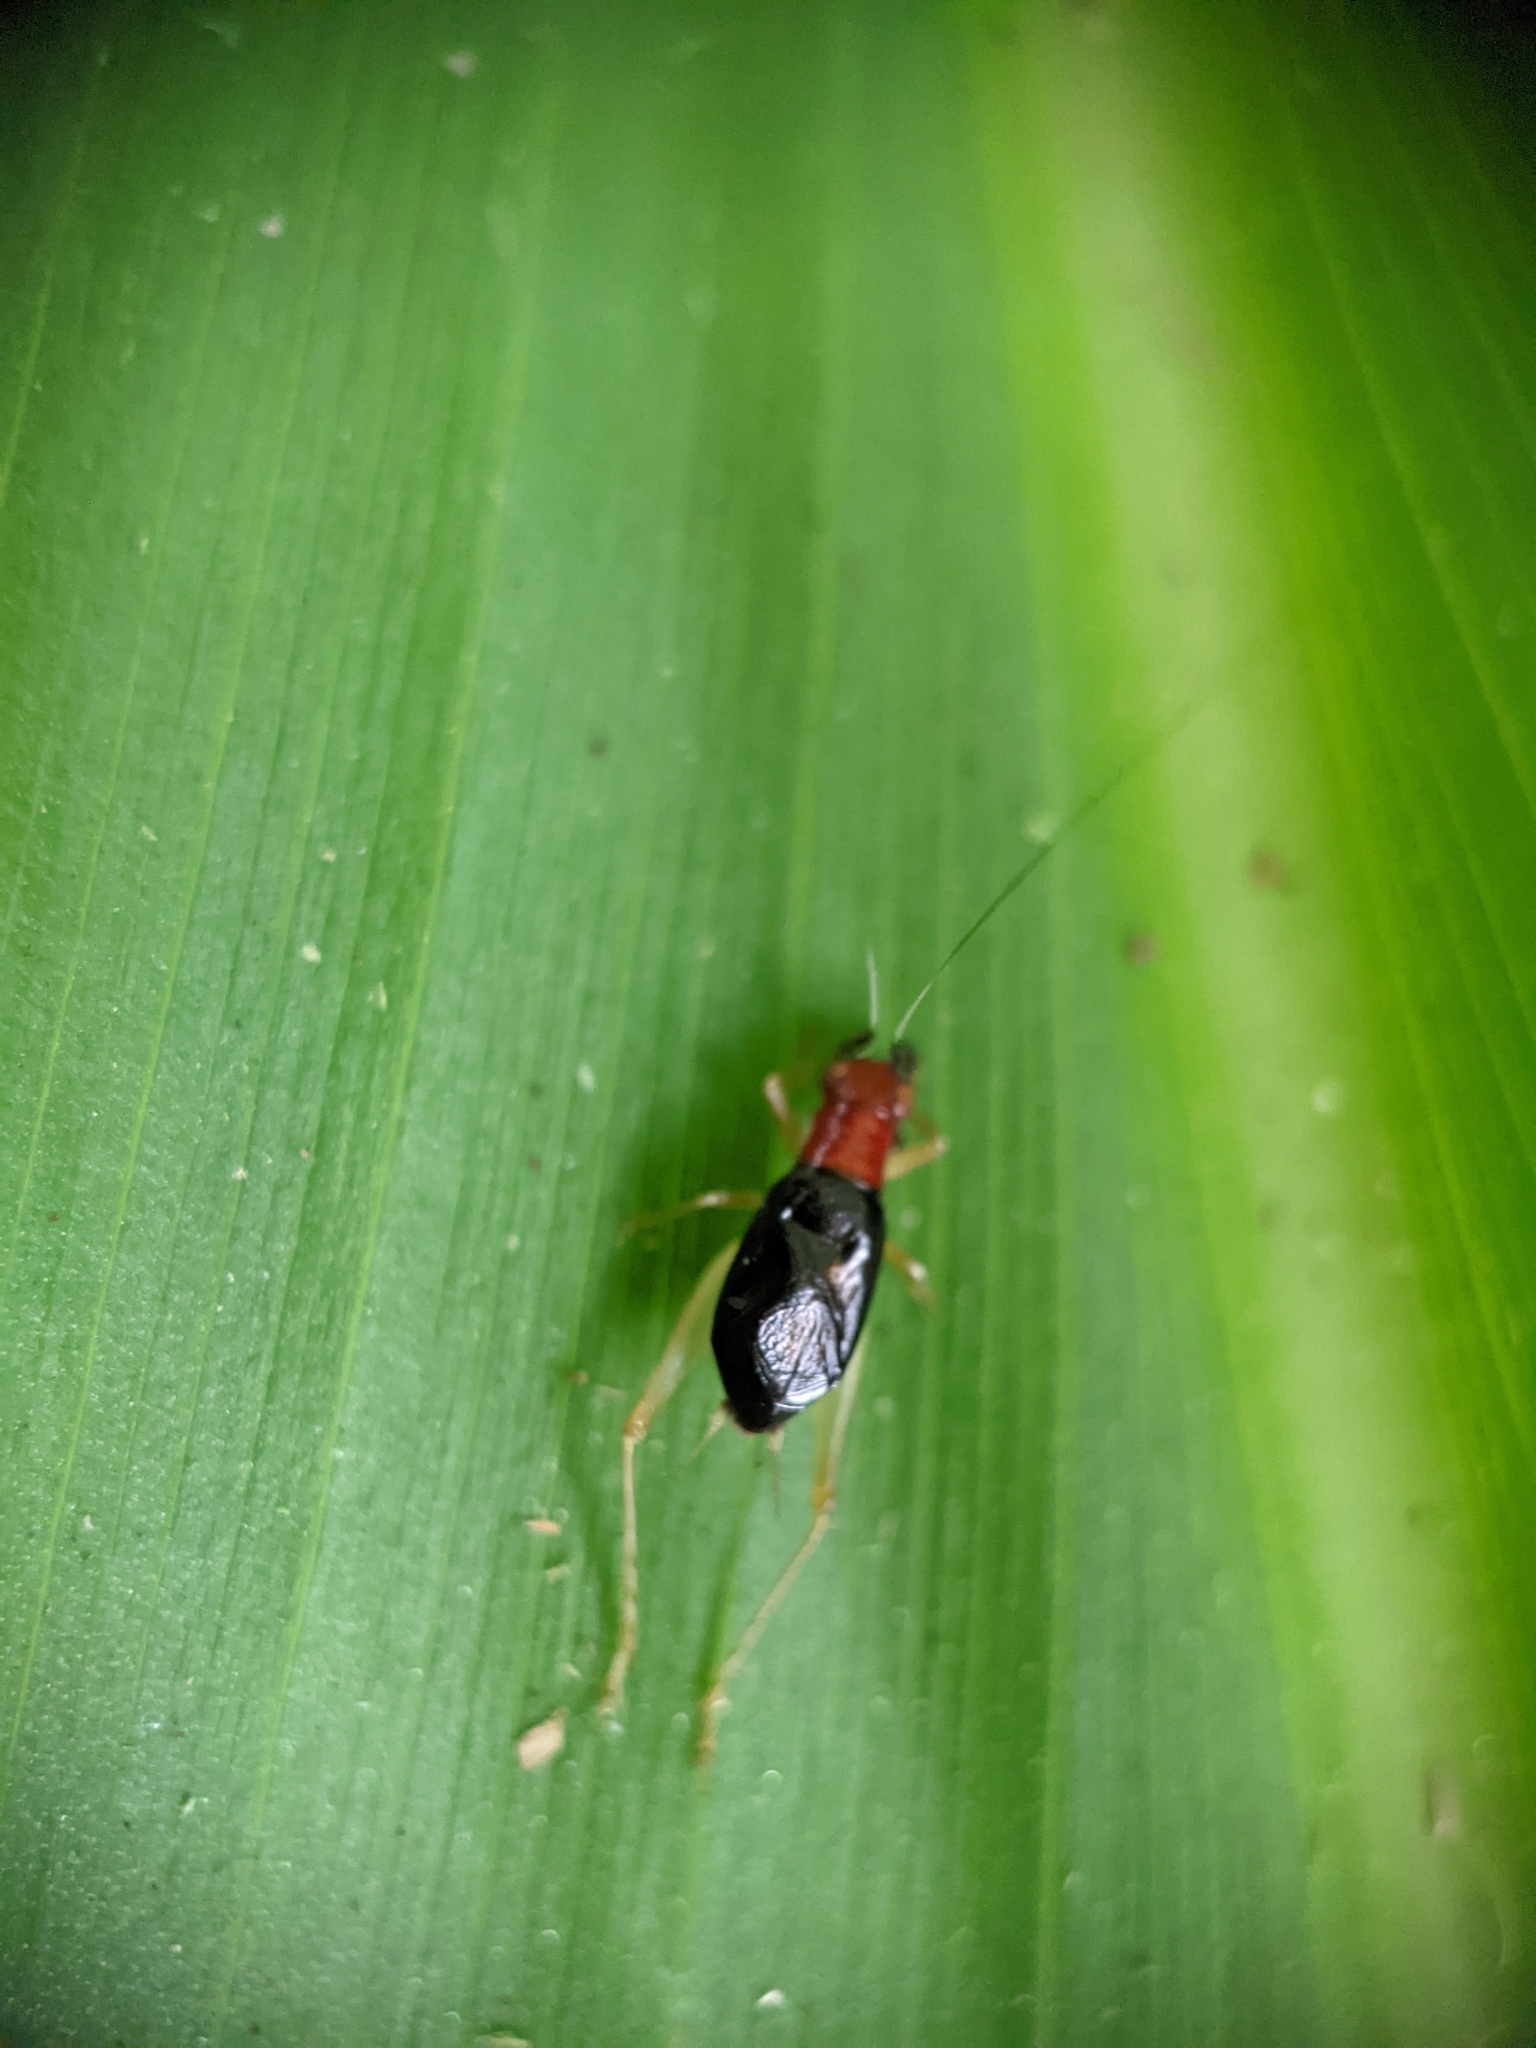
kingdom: Animalia
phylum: Arthropoda
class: Insecta
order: Orthoptera
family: Trigonidiidae
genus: Phyllopalpus
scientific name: Phyllopalpus pulchellus
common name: Handsome trig
